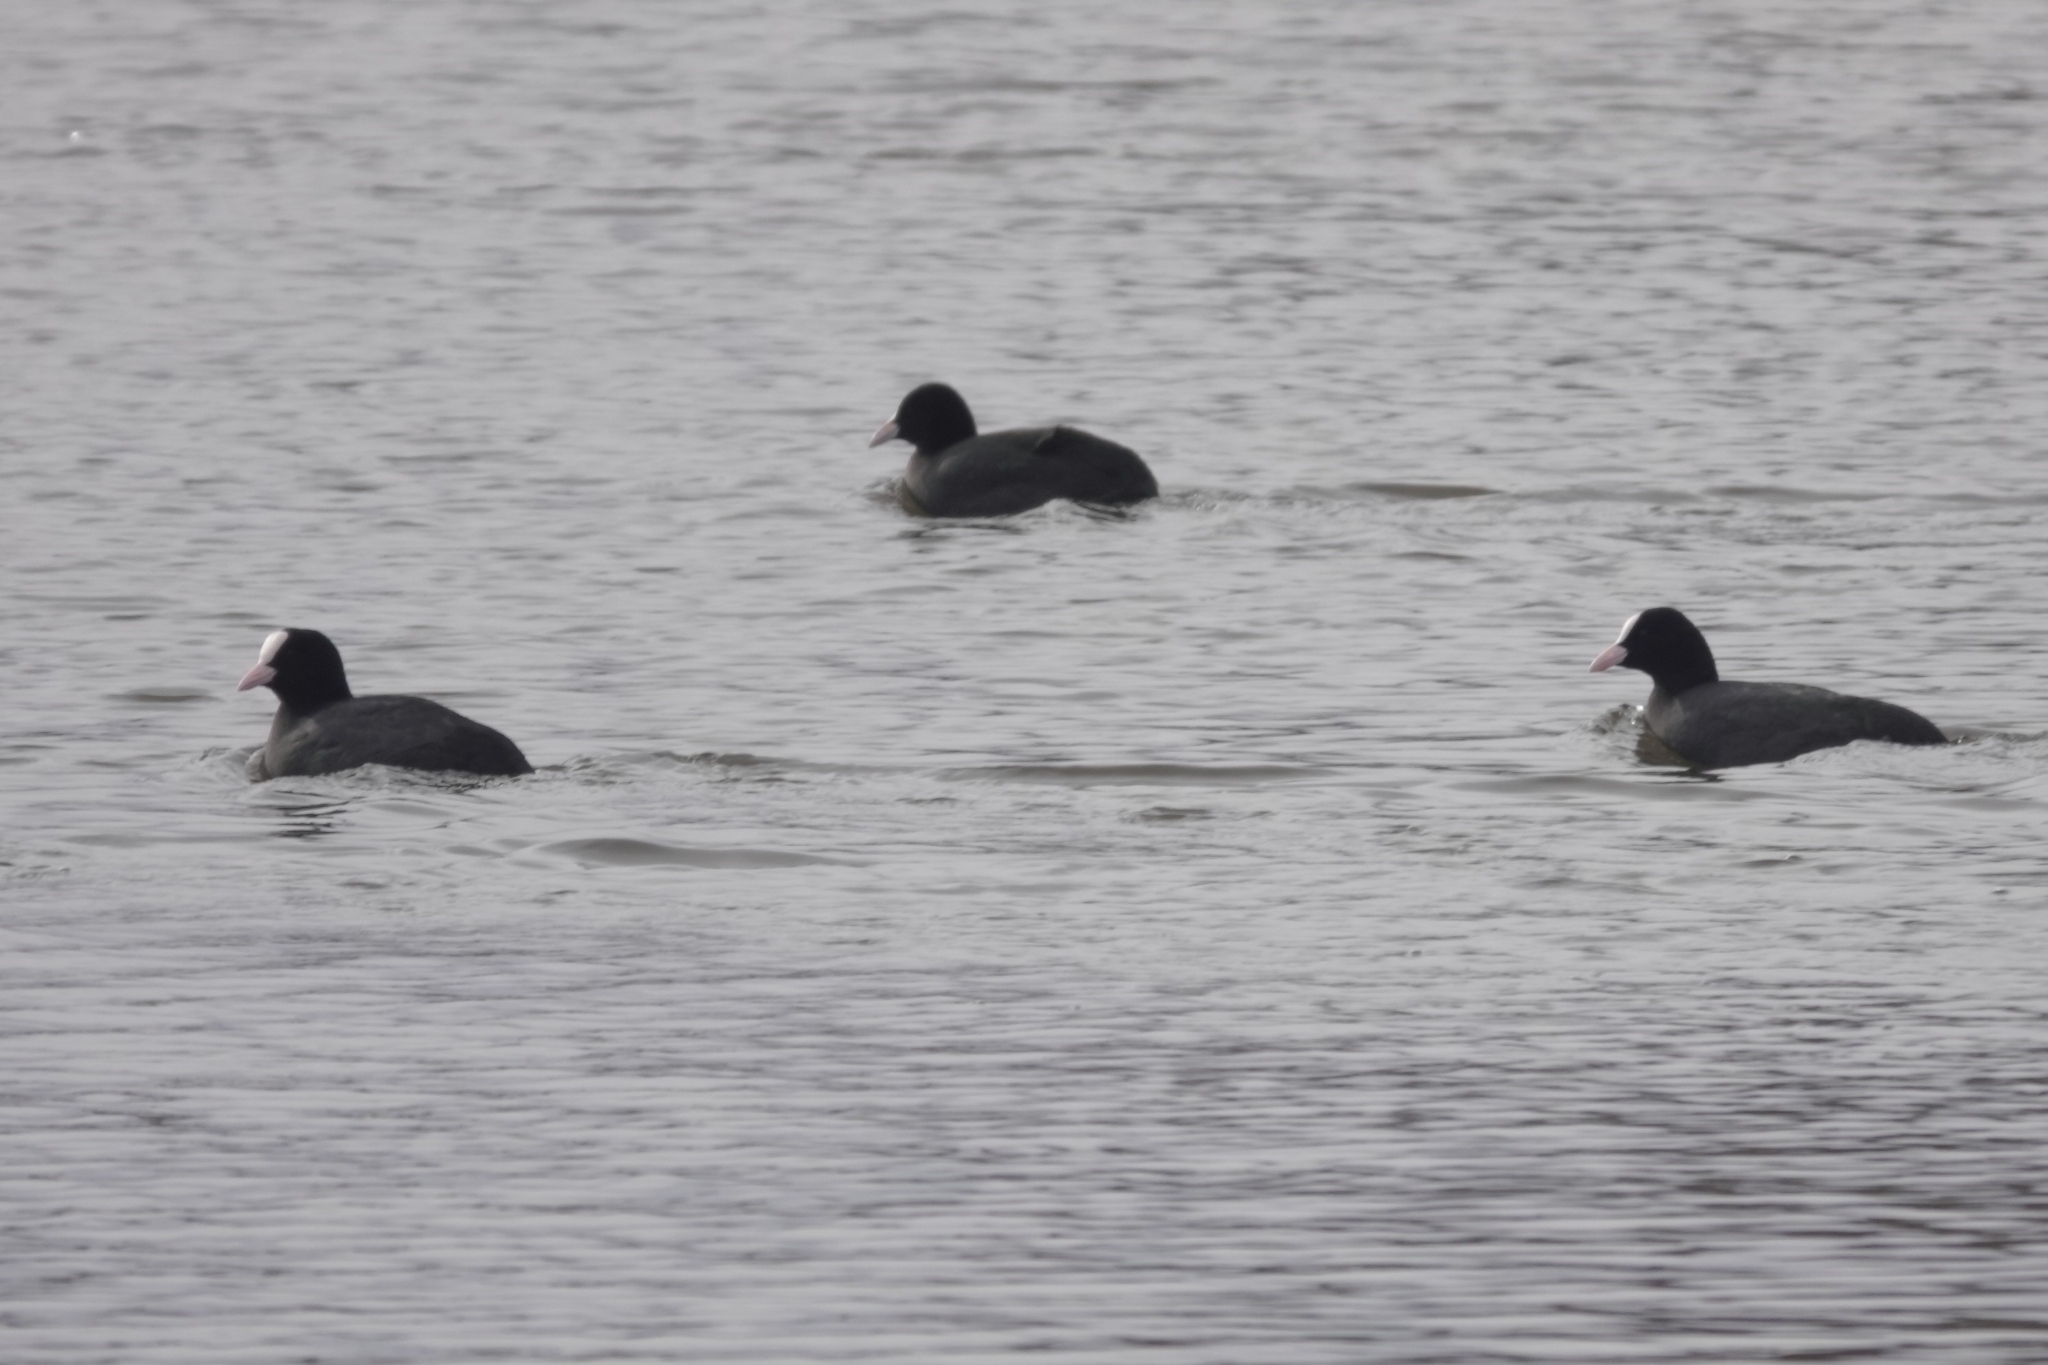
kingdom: Animalia
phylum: Chordata
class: Aves
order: Gruiformes
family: Rallidae
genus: Fulica
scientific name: Fulica atra
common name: Eurasian coot
